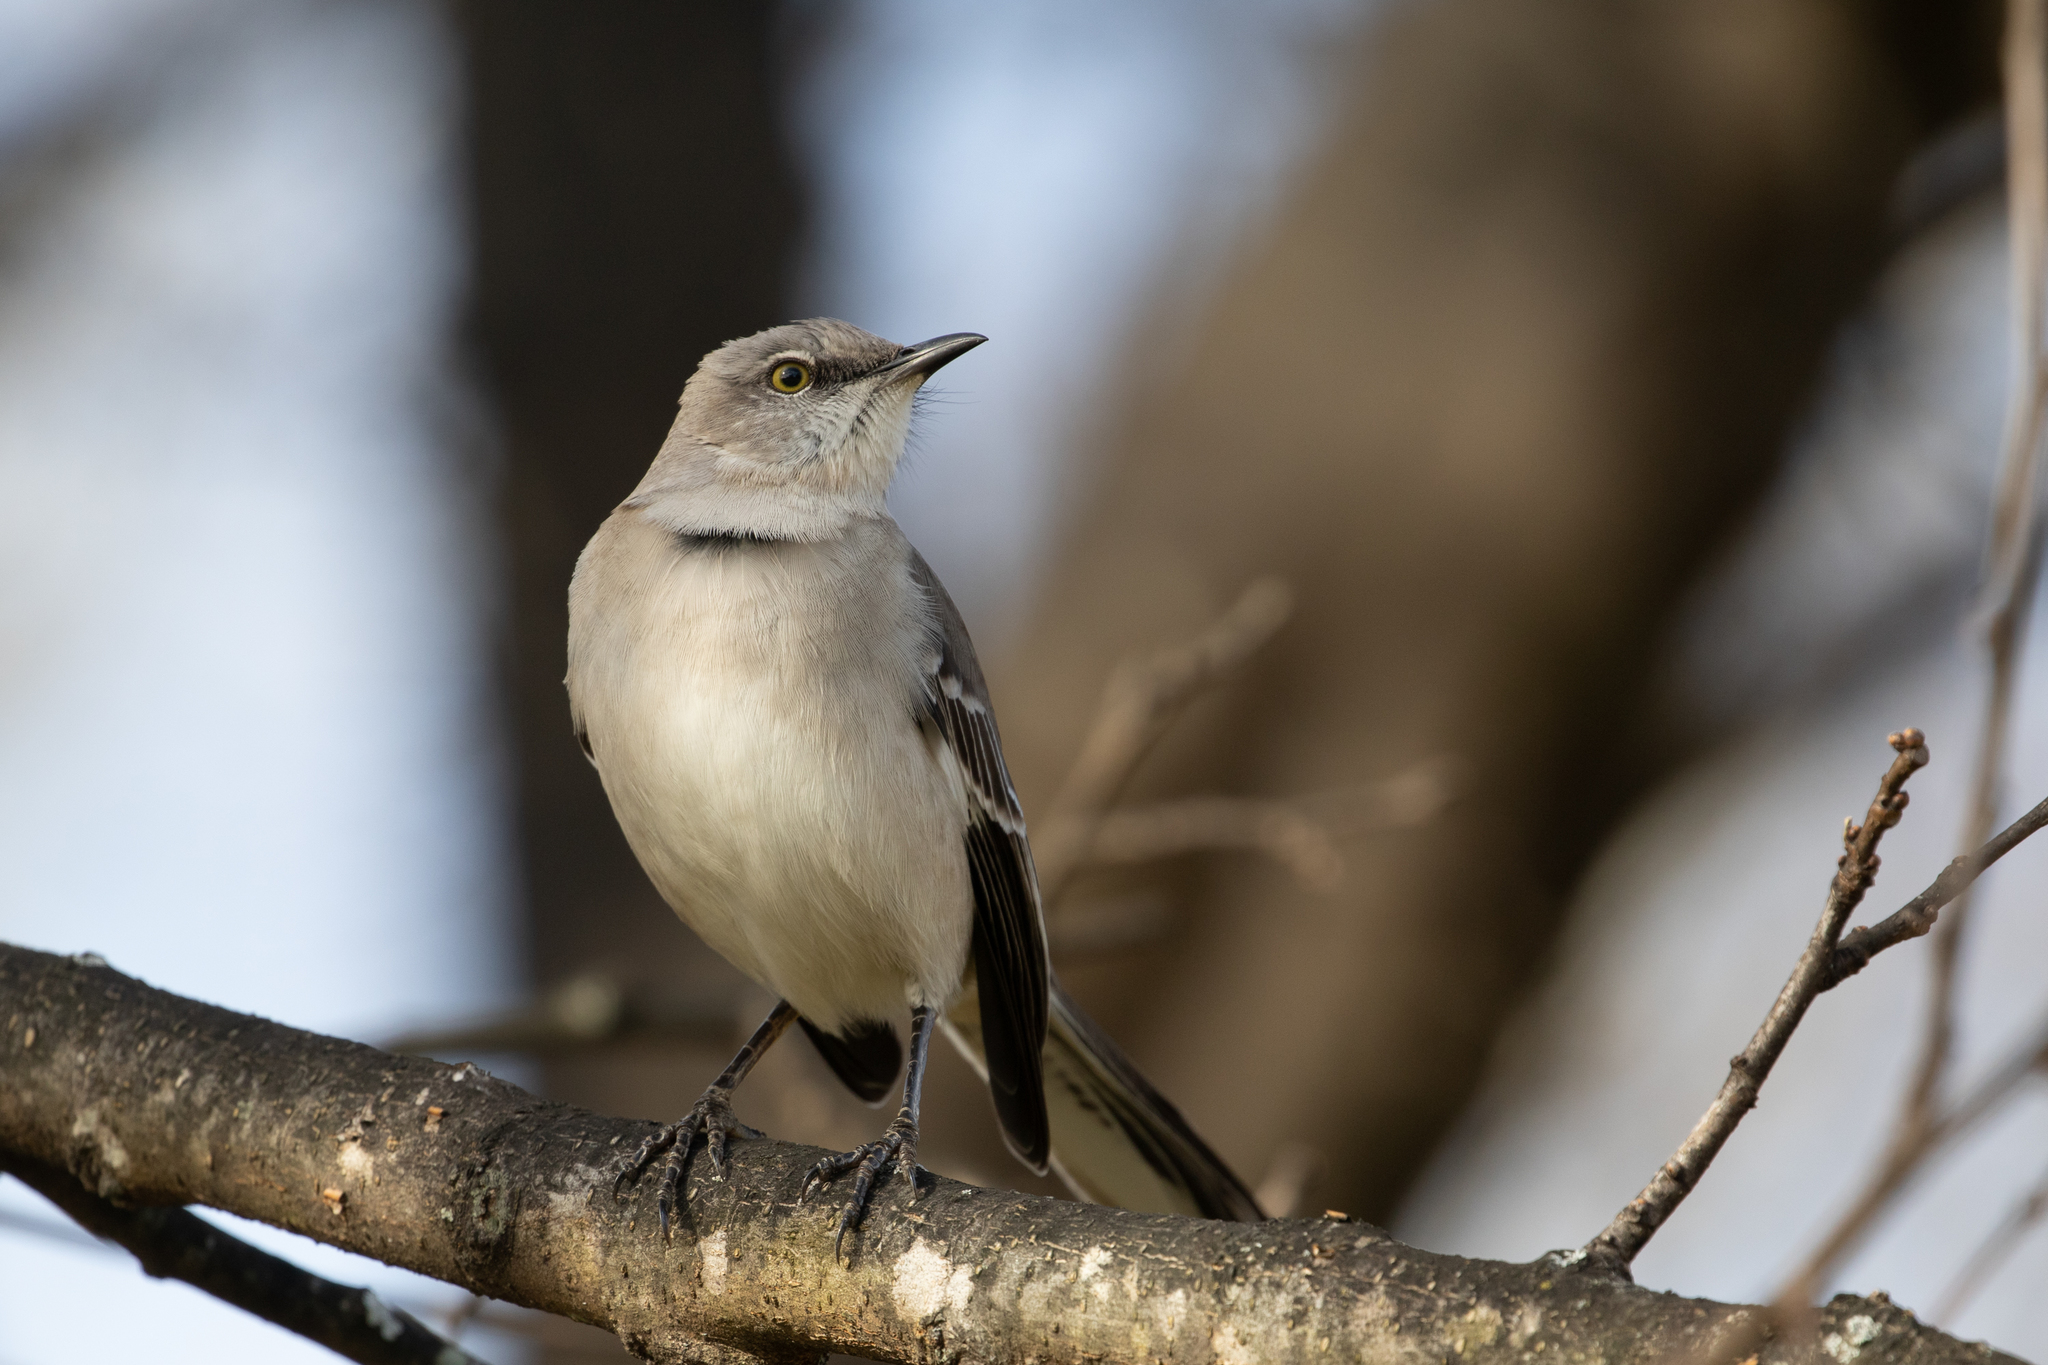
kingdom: Animalia
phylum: Chordata
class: Aves
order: Passeriformes
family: Mimidae
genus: Mimus
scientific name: Mimus polyglottos
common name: Northern mockingbird
